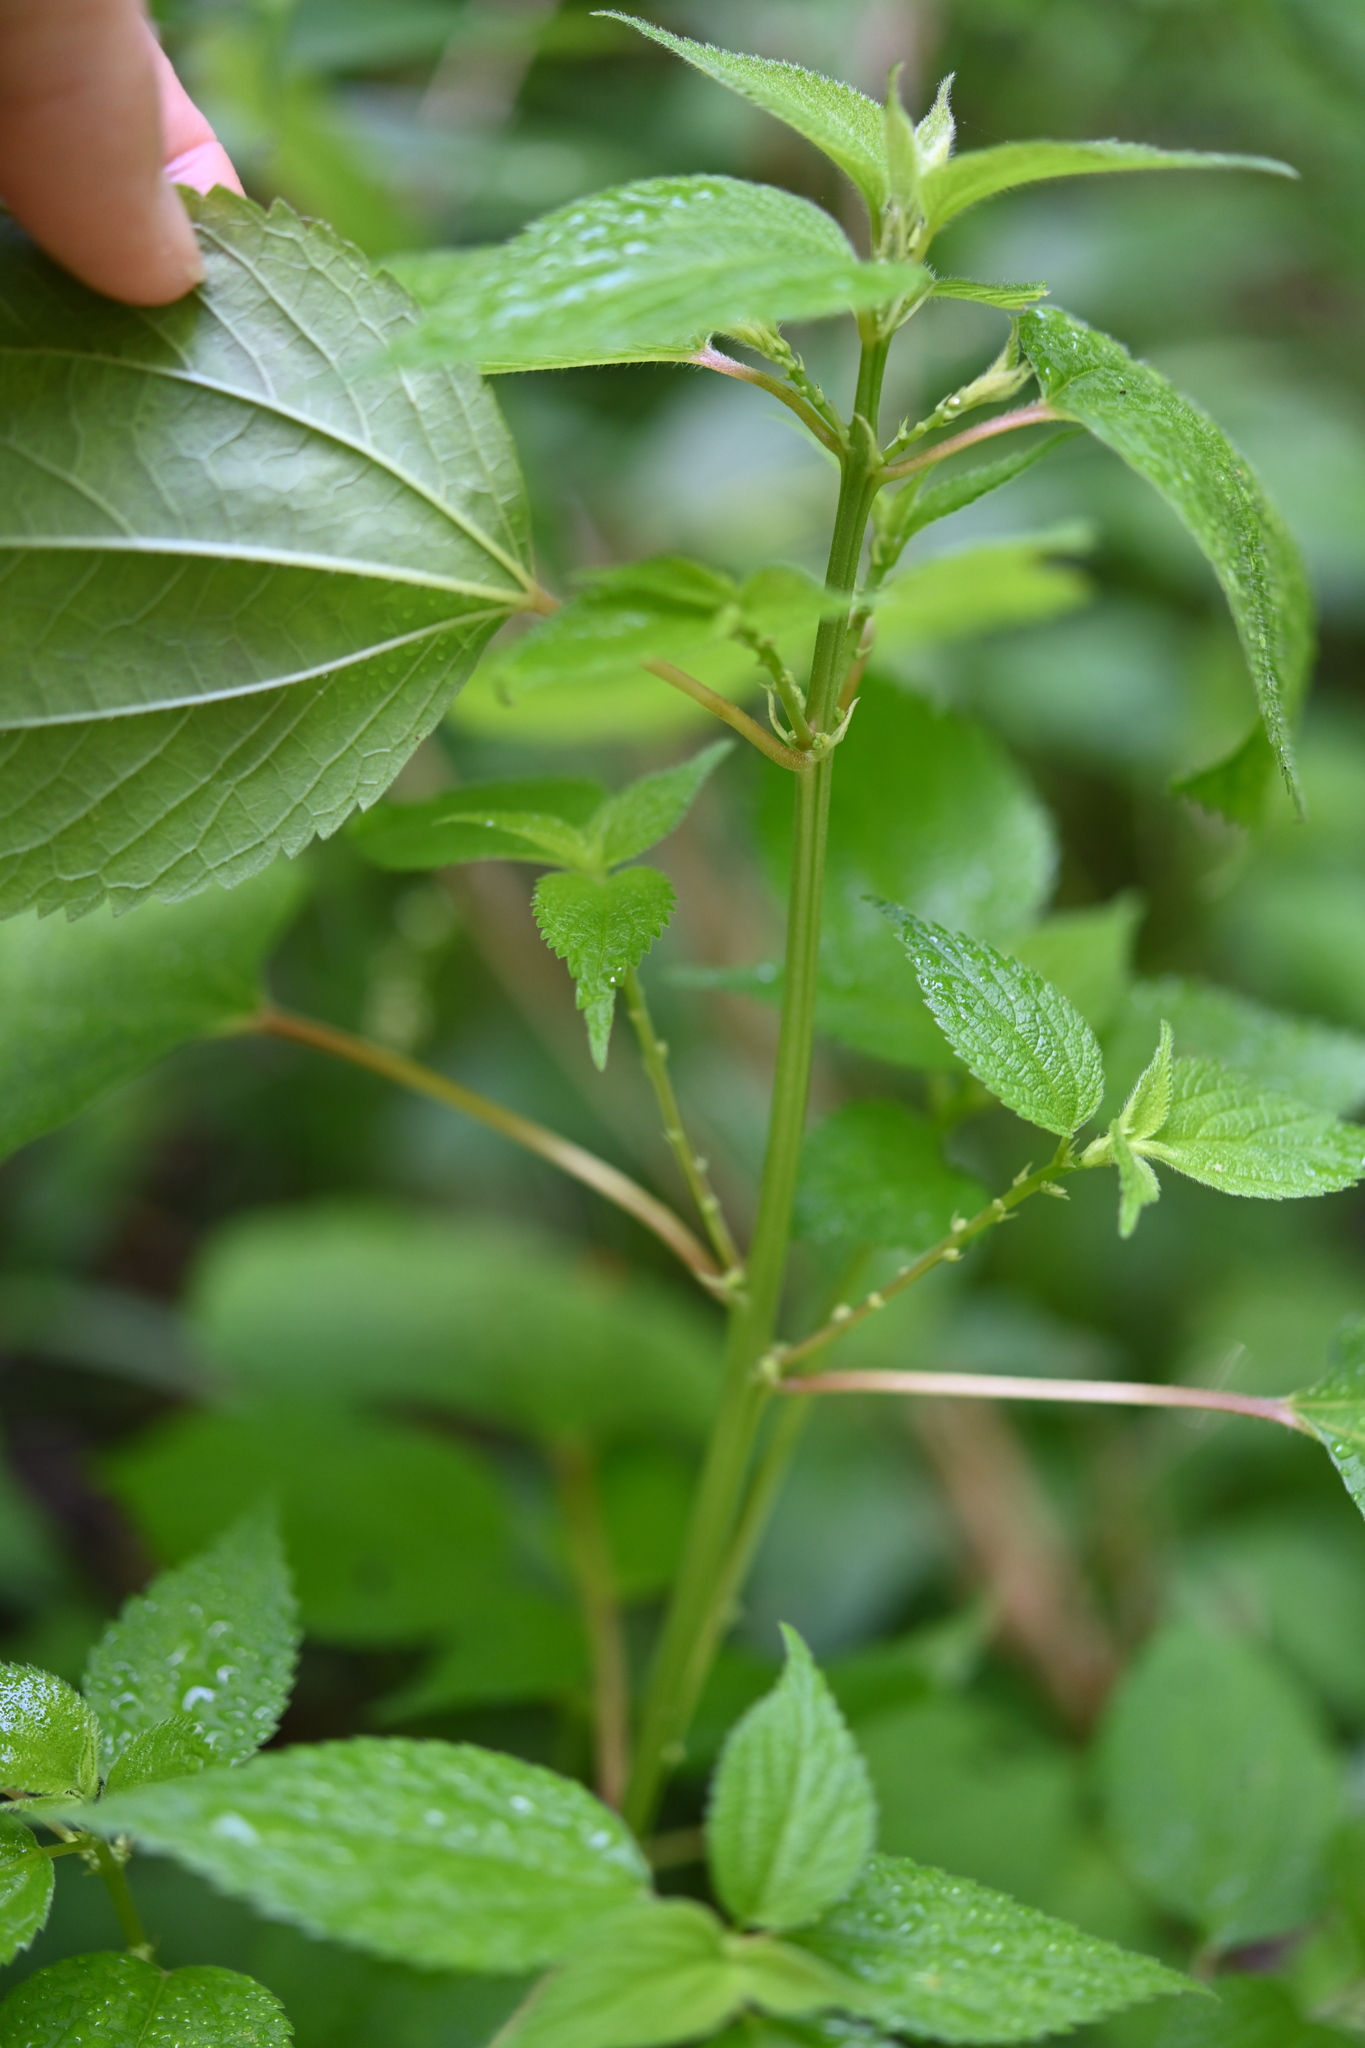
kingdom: Plantae
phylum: Tracheophyta
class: Magnoliopsida
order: Rosales
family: Urticaceae
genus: Boehmeria
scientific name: Boehmeria cylindrica
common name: Bog-hemp
